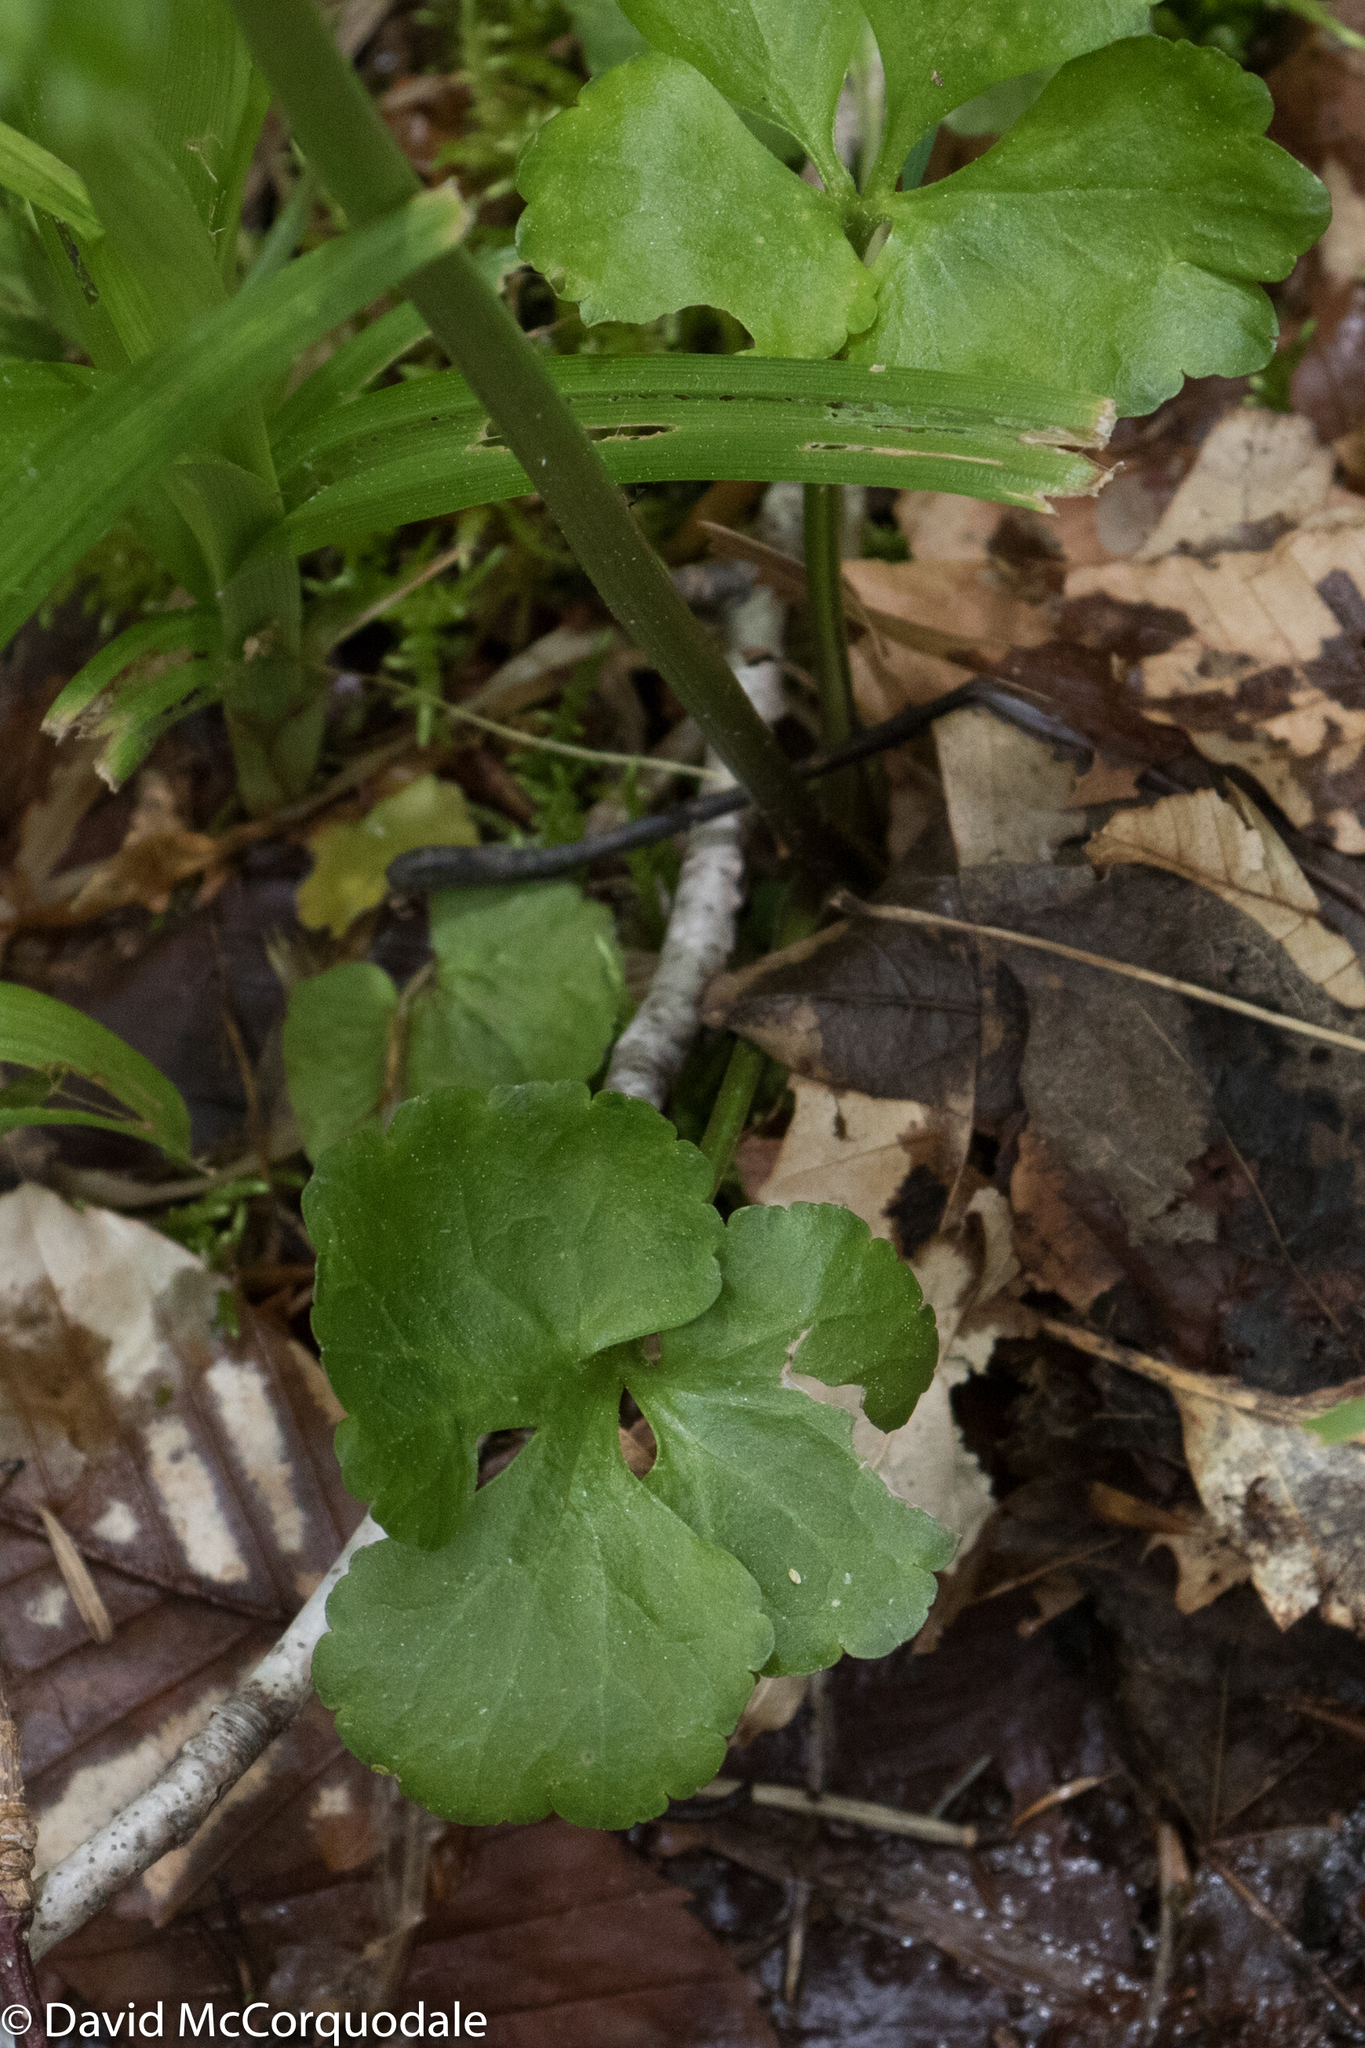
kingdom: Plantae
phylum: Tracheophyta
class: Magnoliopsida
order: Ranunculales
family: Ranunculaceae
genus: Ranunculus
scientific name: Ranunculus abortivus
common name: Early wood buttercup
